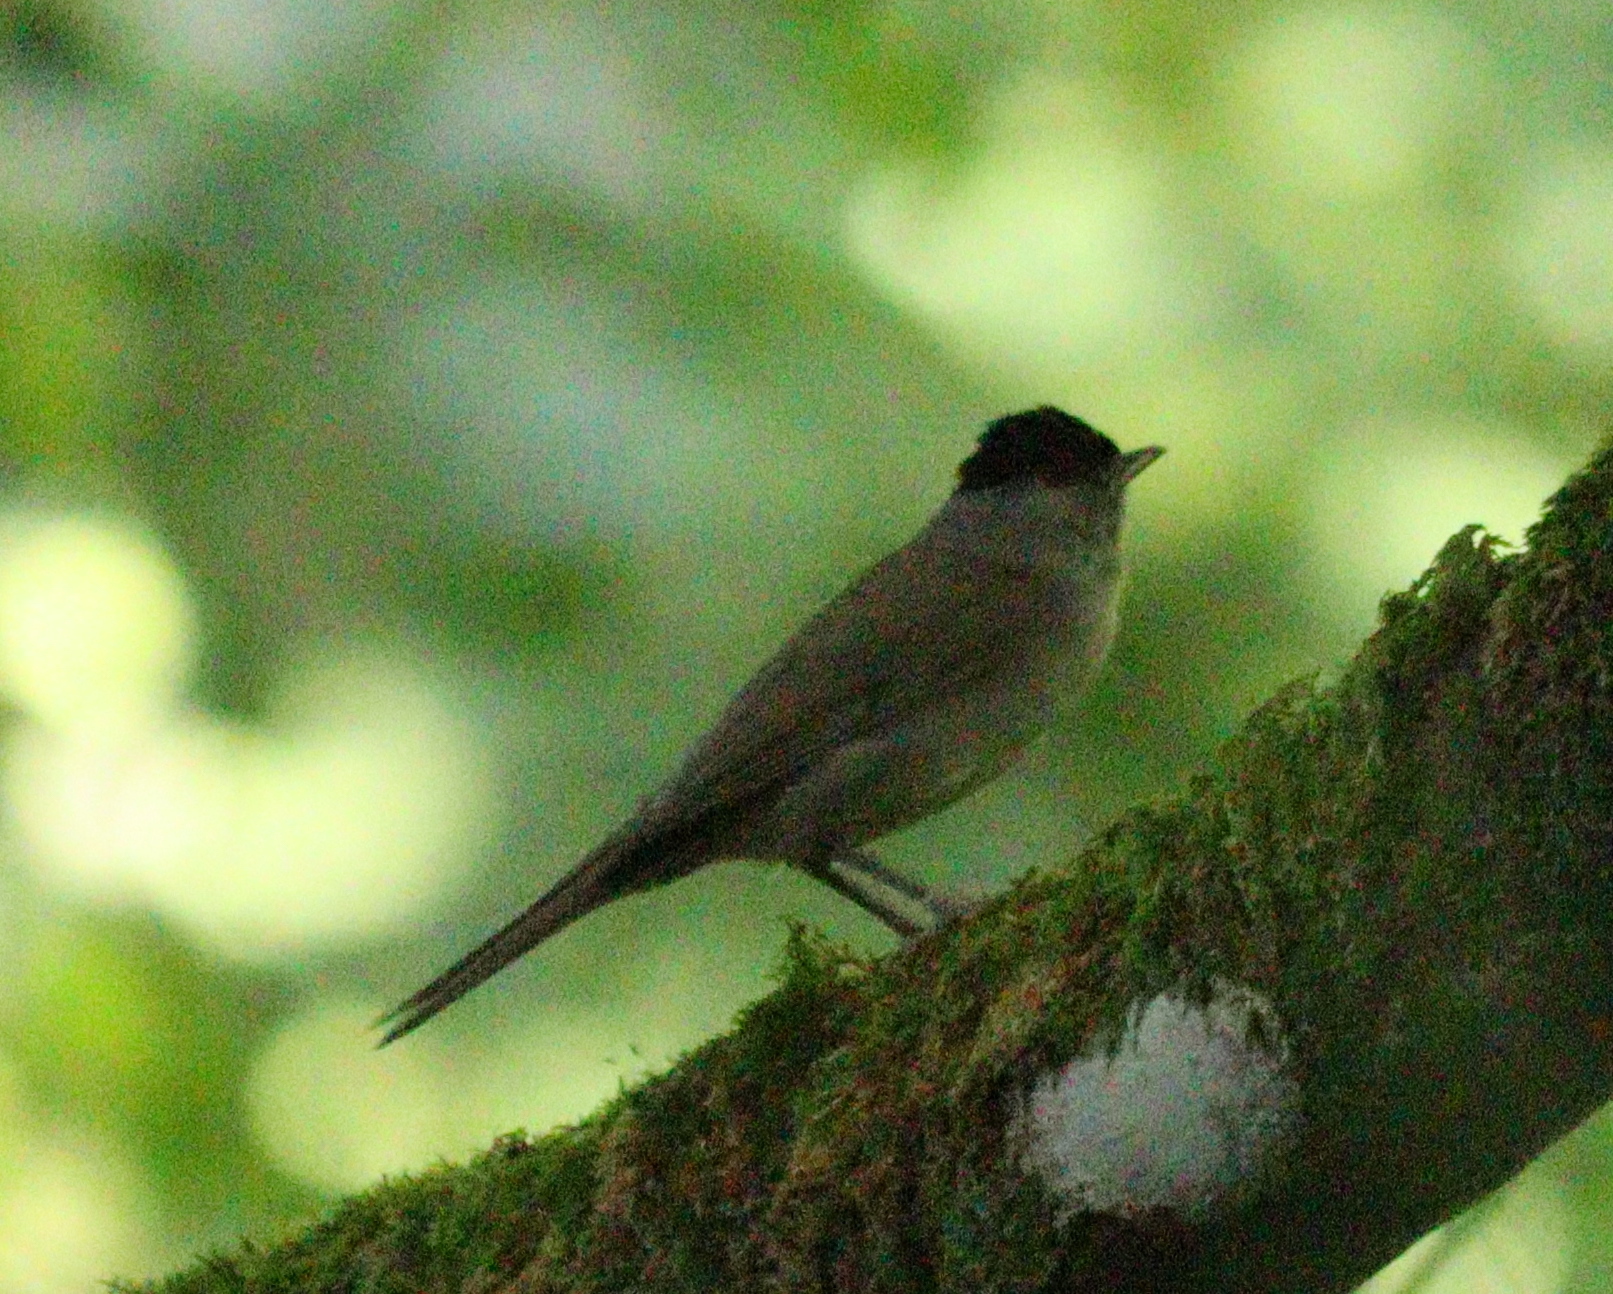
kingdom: Animalia
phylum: Chordata
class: Aves
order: Passeriformes
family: Sylviidae
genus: Sylvia
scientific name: Sylvia atricapilla
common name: Eurasian blackcap
